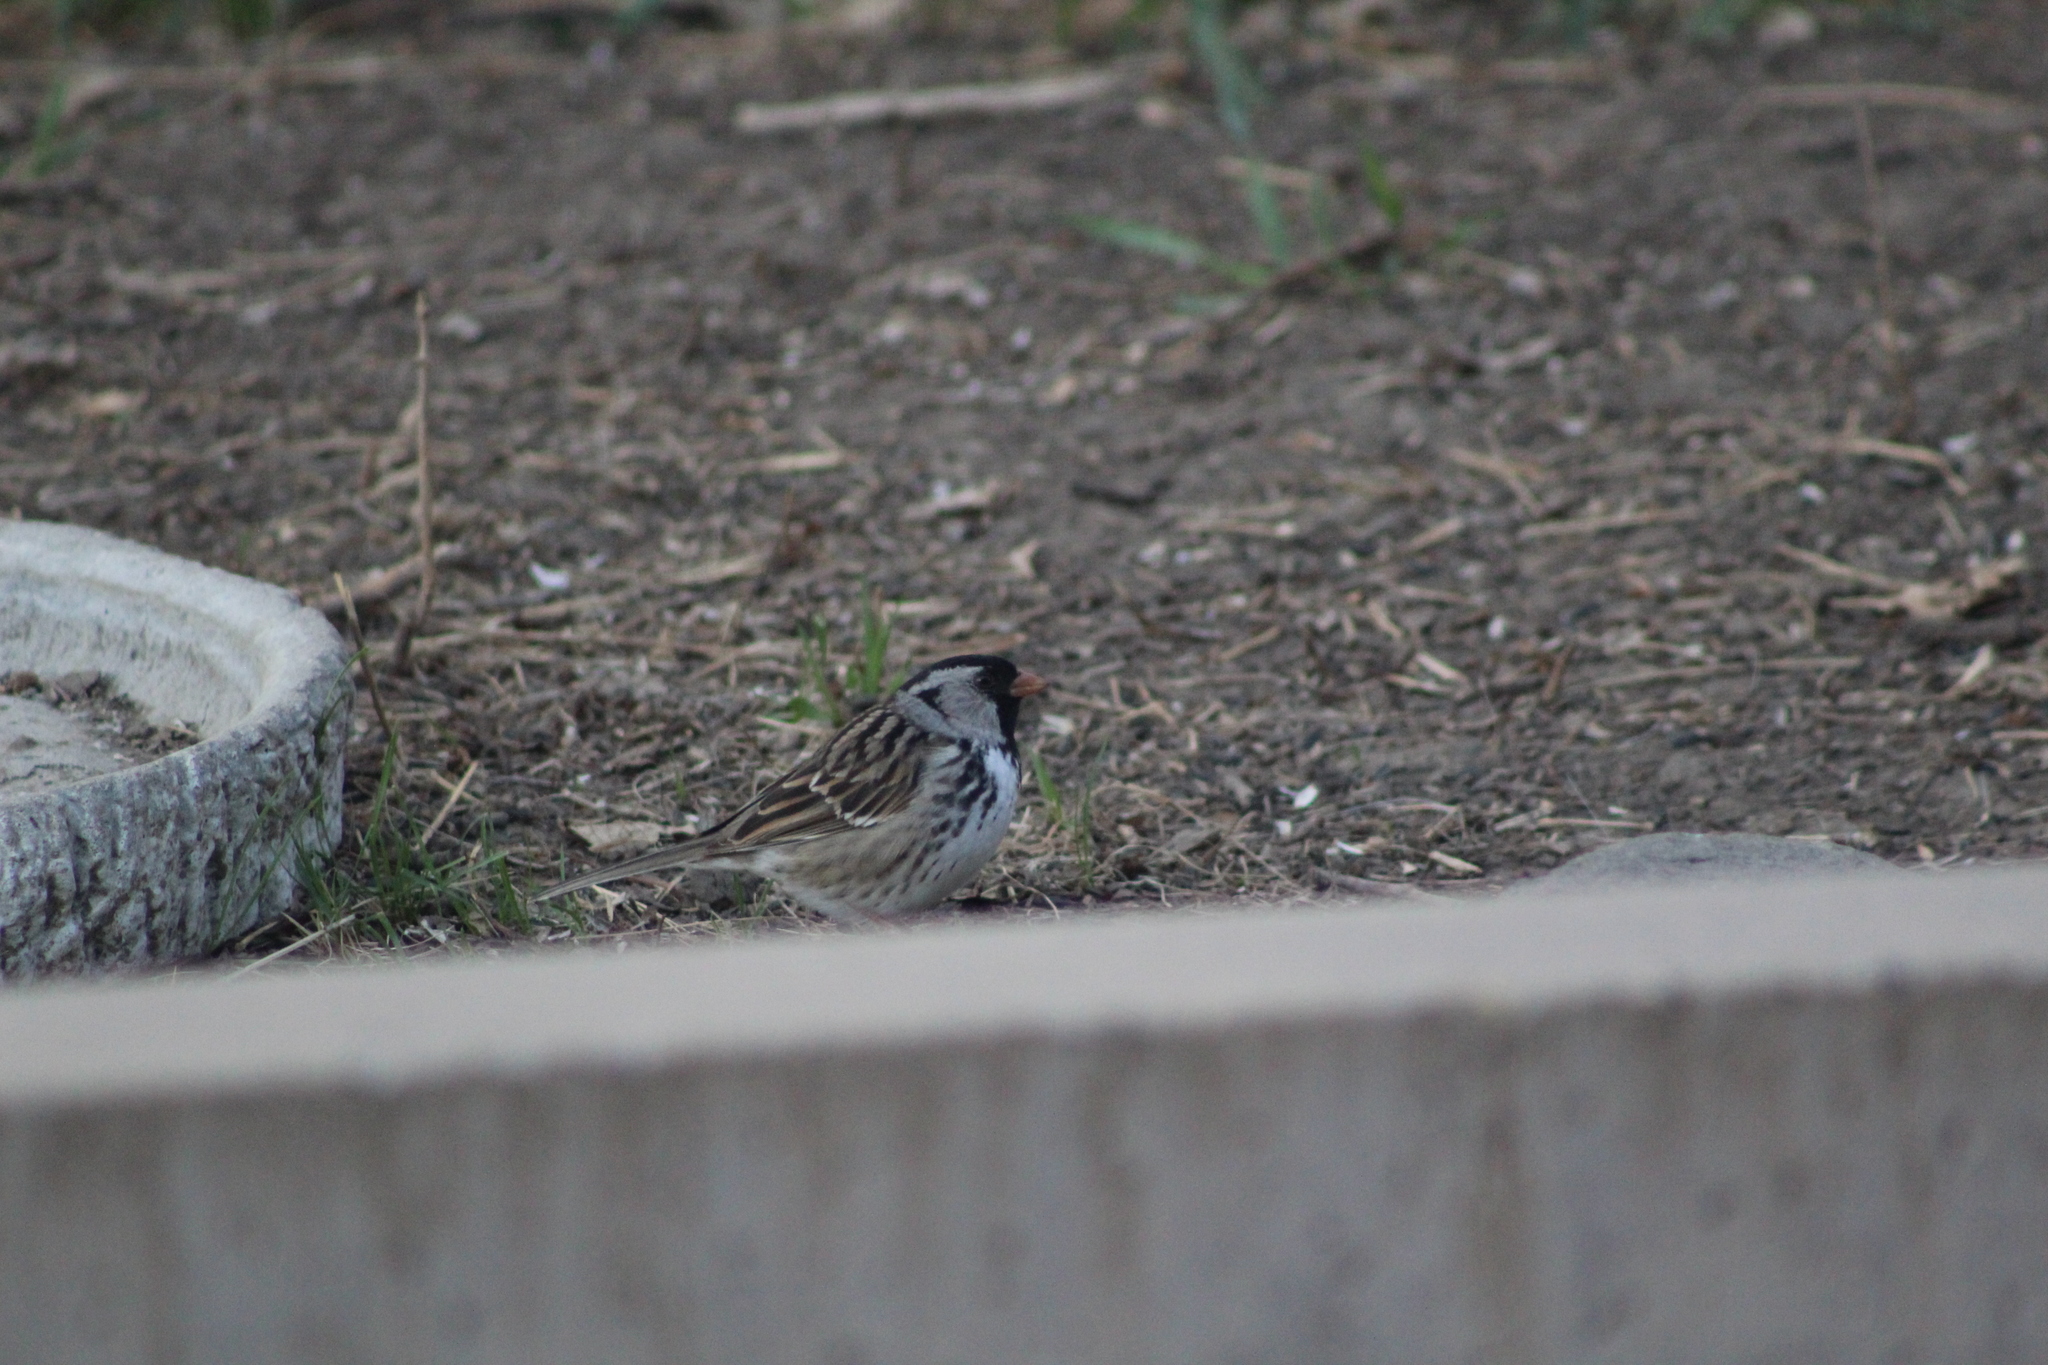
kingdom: Animalia
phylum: Chordata
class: Aves
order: Passeriformes
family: Passerellidae
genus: Zonotrichia
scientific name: Zonotrichia querula
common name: Harris's sparrow
